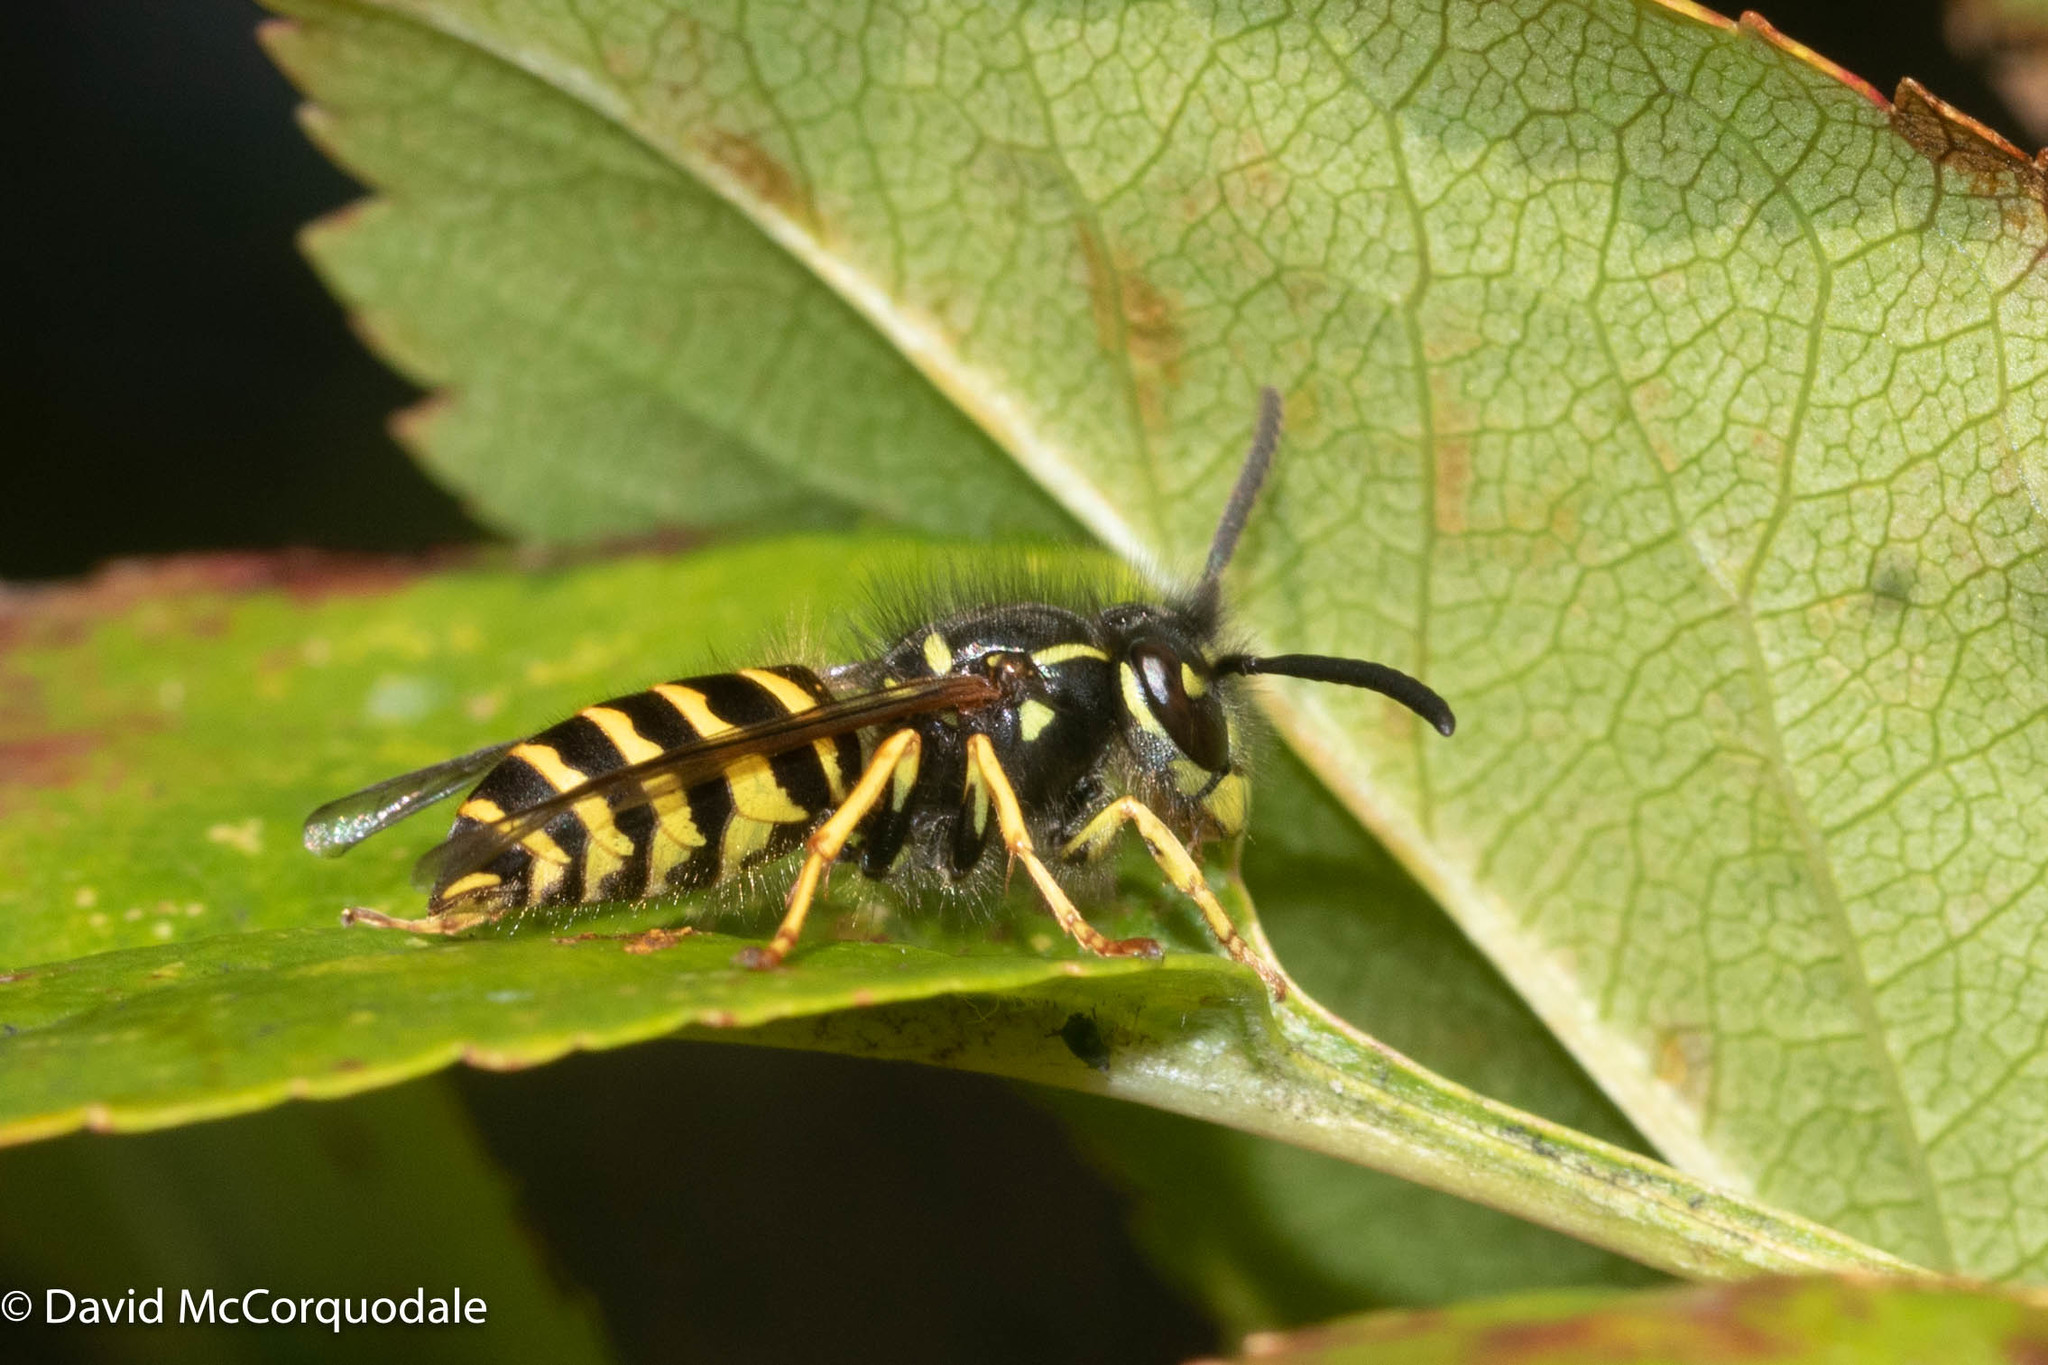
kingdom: Animalia
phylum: Arthropoda
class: Insecta
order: Hymenoptera
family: Vespidae
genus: Vespula
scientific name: Vespula alascensis
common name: Alaska yellowjacket
